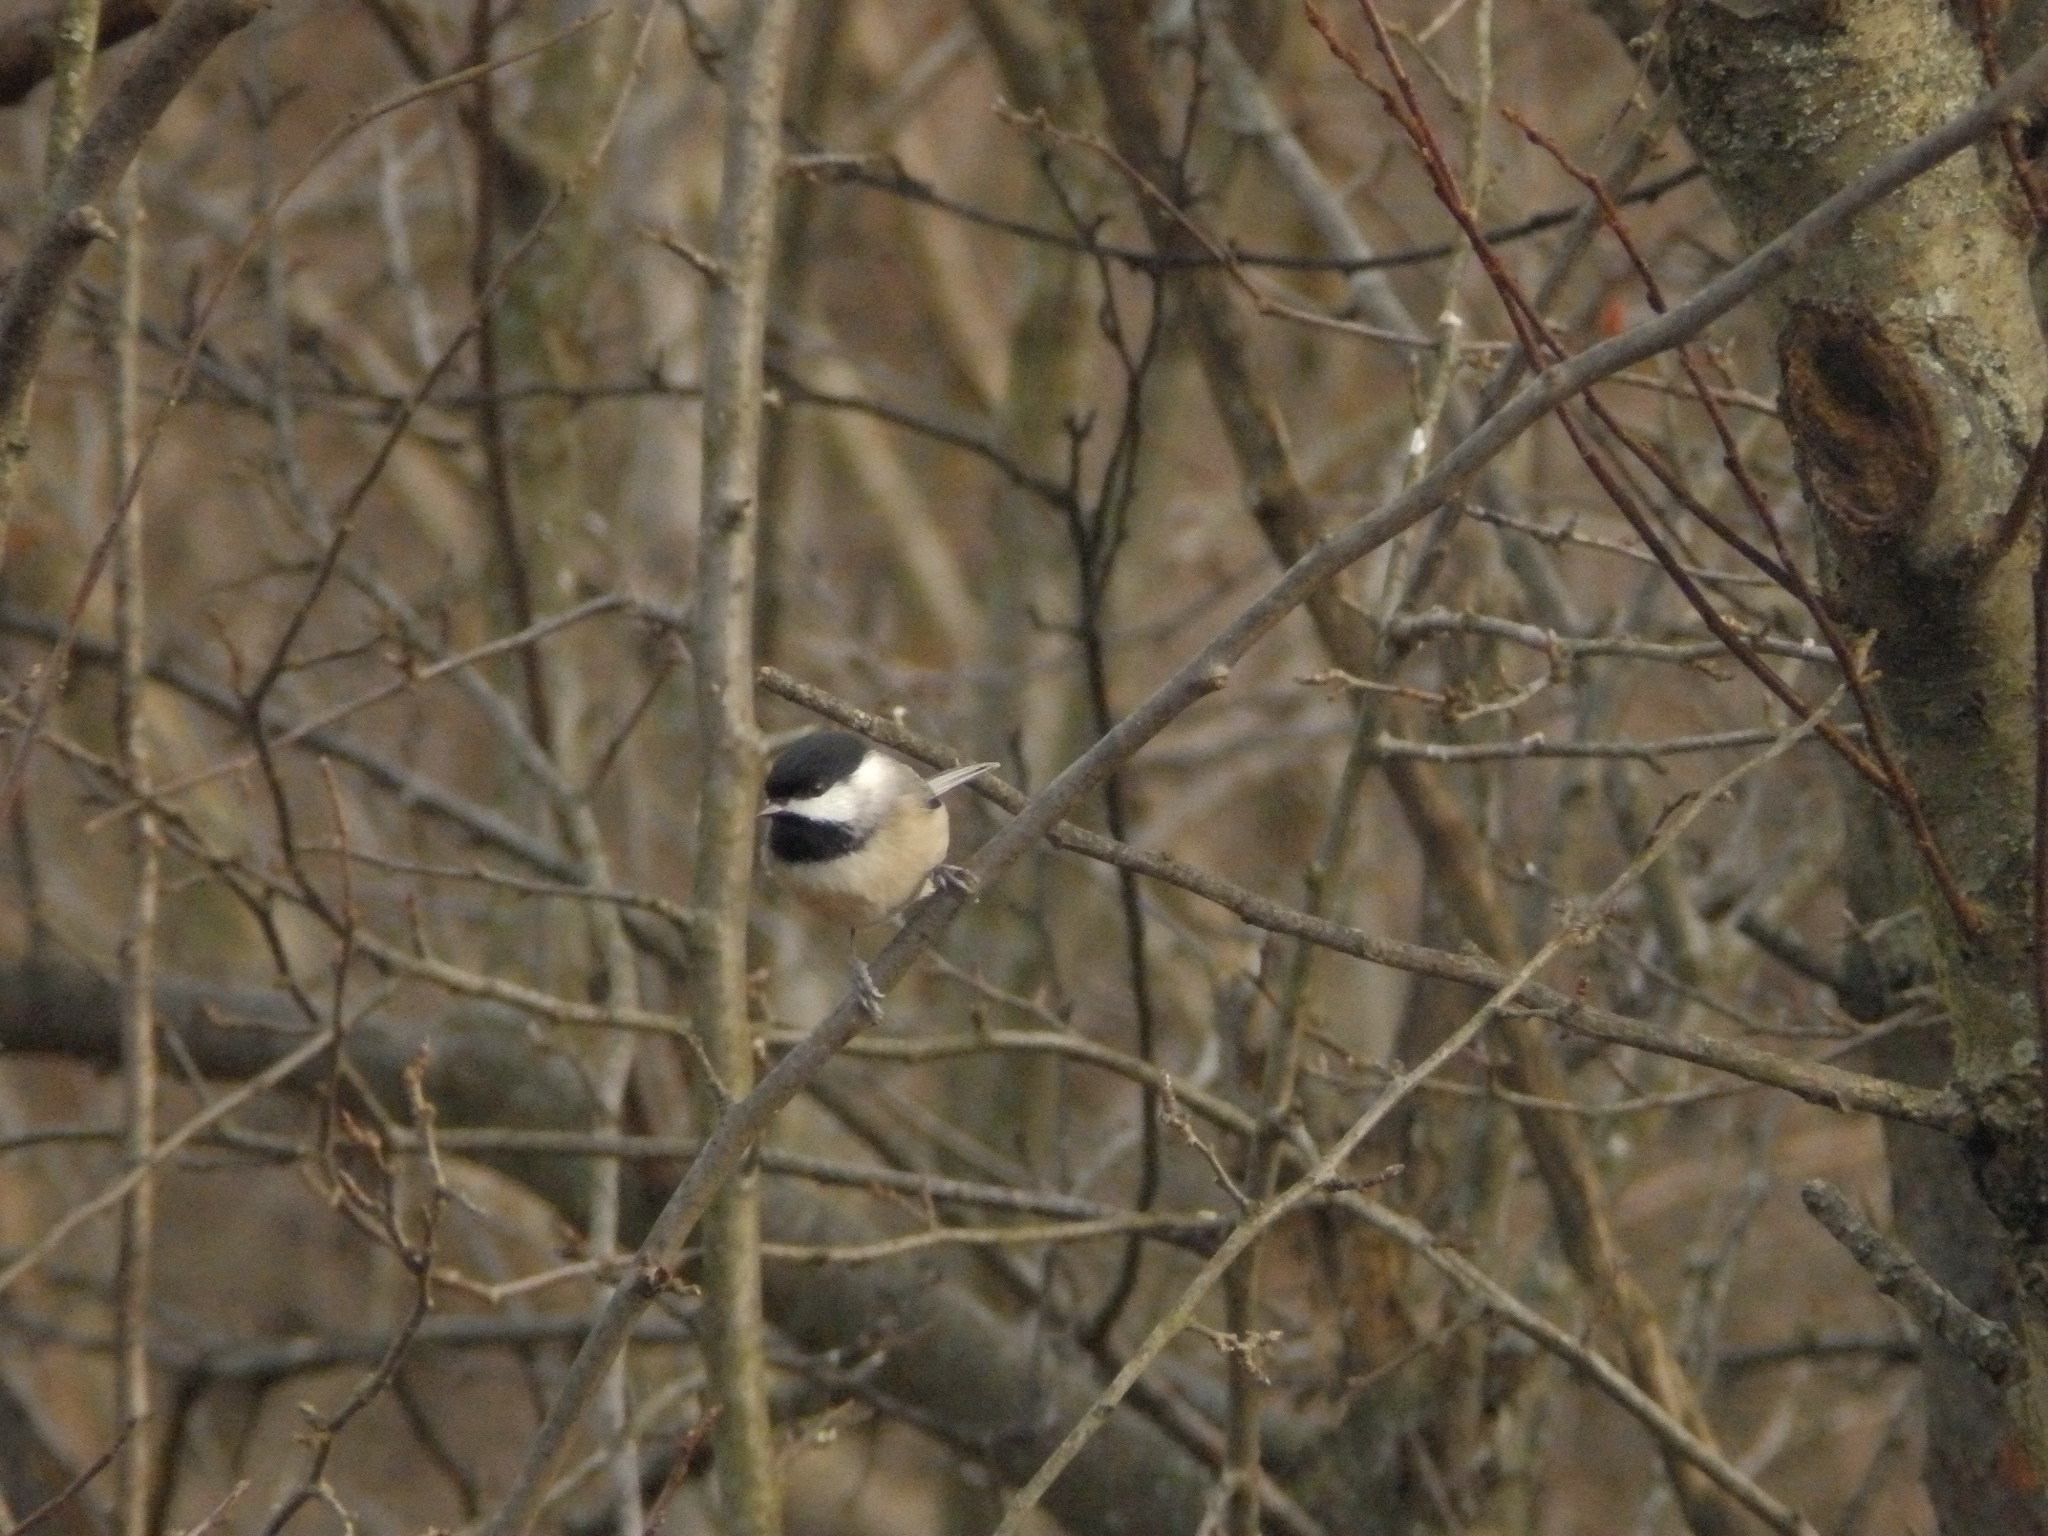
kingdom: Animalia
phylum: Chordata
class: Aves
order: Passeriformes
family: Paridae
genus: Poecile
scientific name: Poecile atricapillus
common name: Black-capped chickadee
